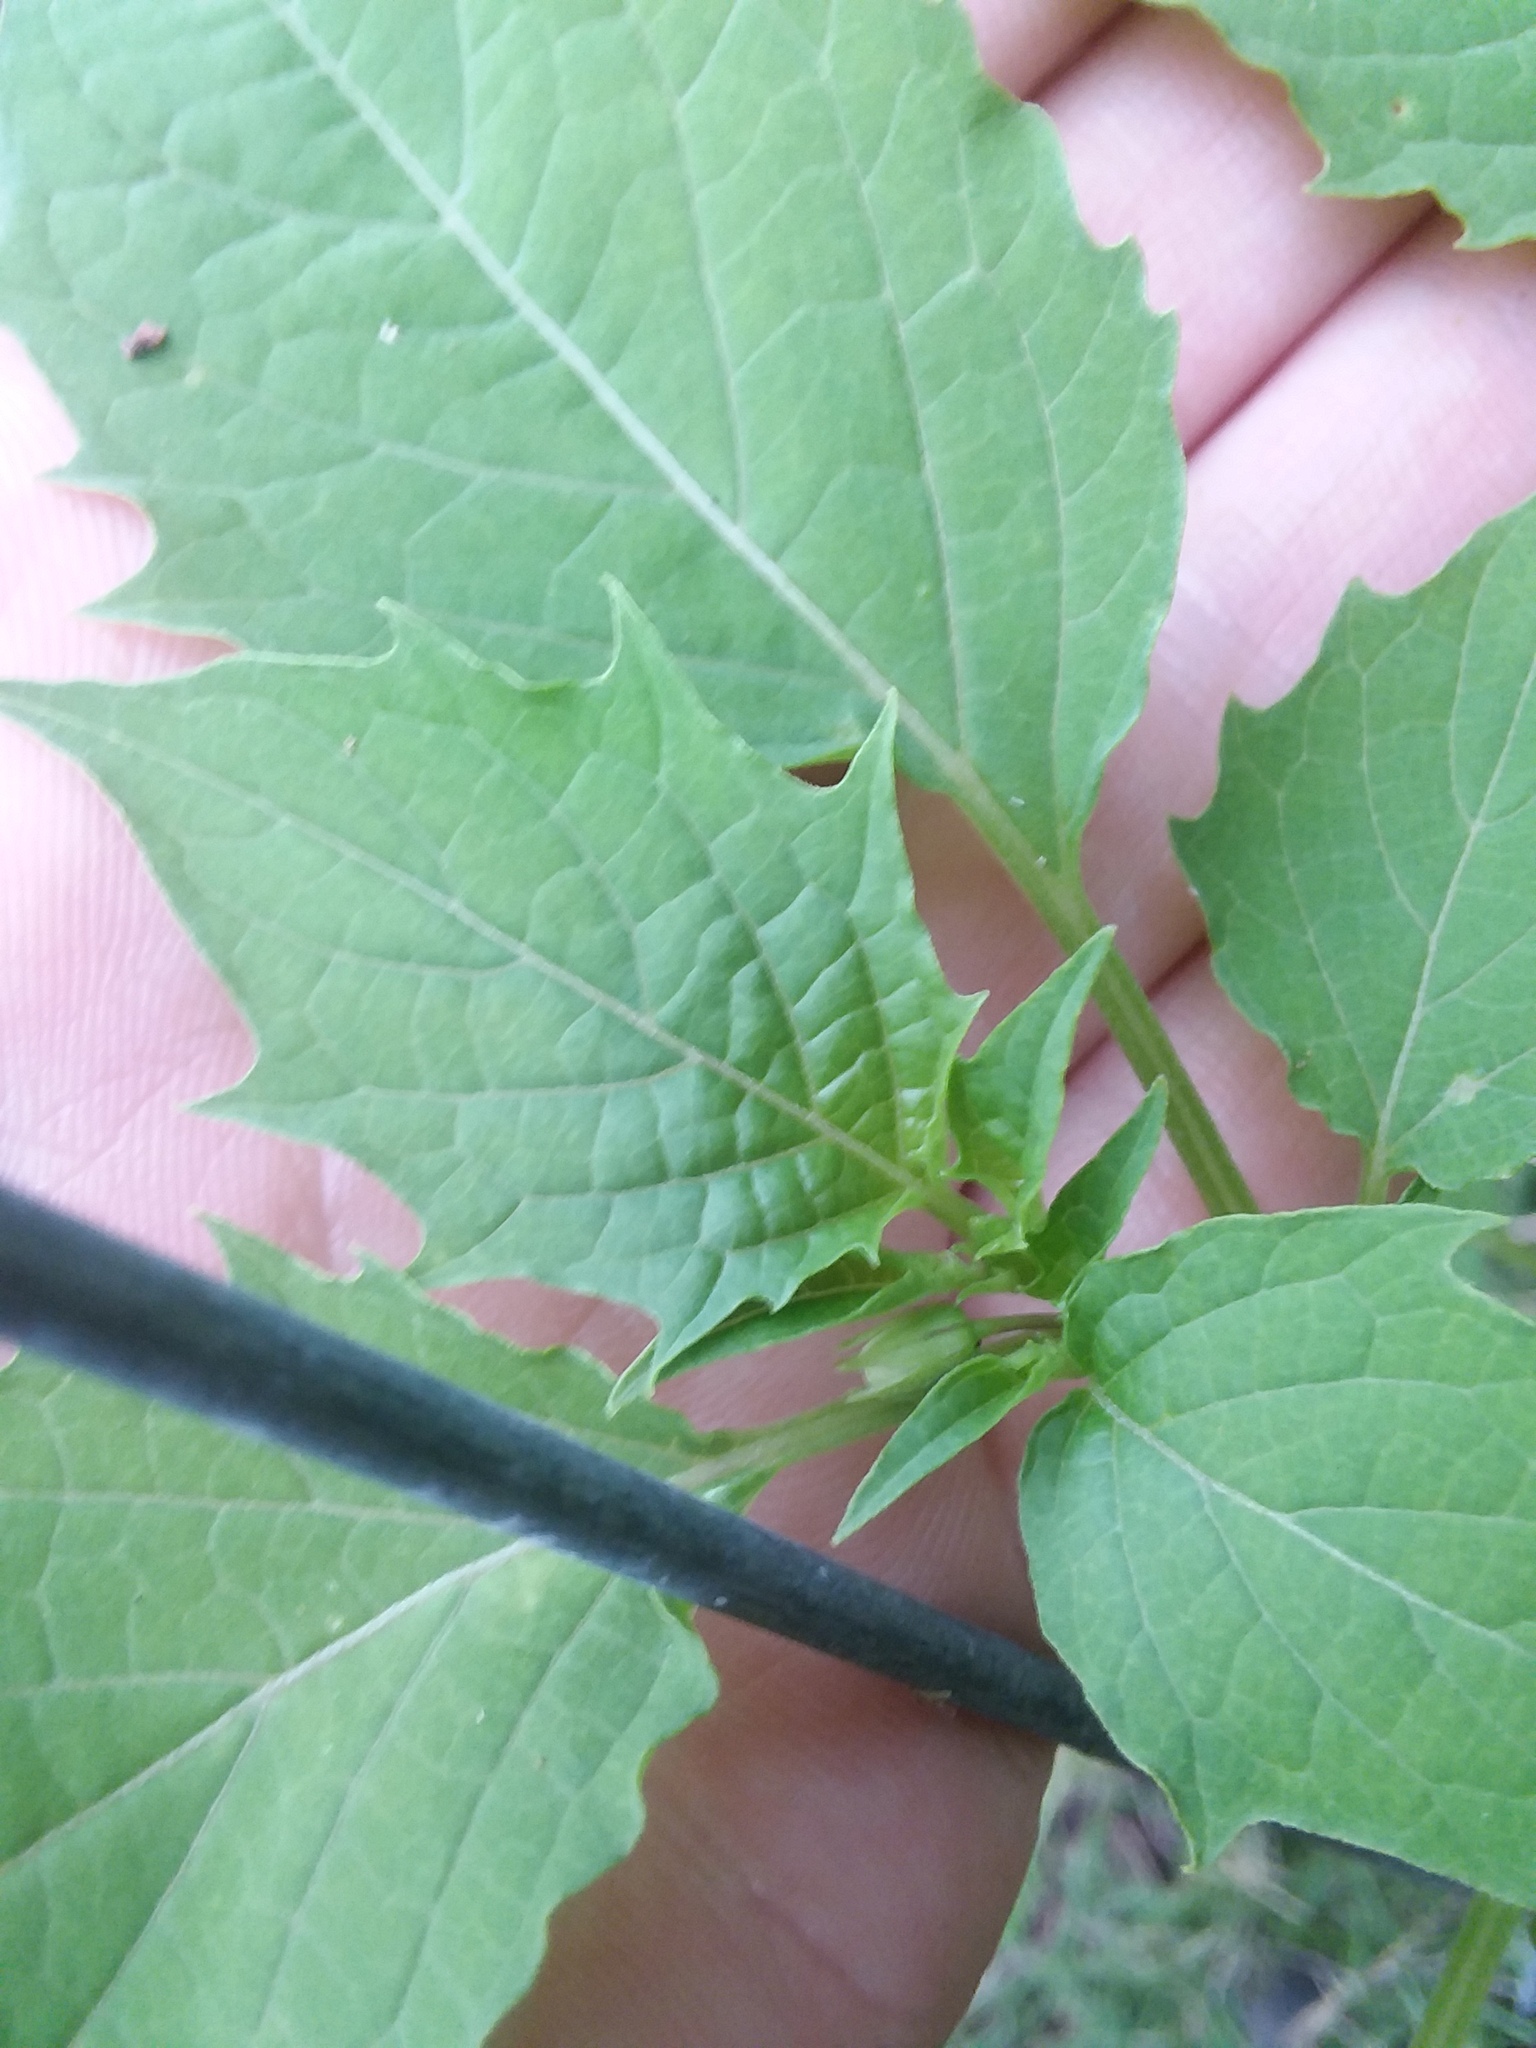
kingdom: Plantae
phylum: Tracheophyta
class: Magnoliopsida
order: Solanales
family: Solanaceae
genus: Physalis
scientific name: Physalis angulata
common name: Angular winter-cherry
